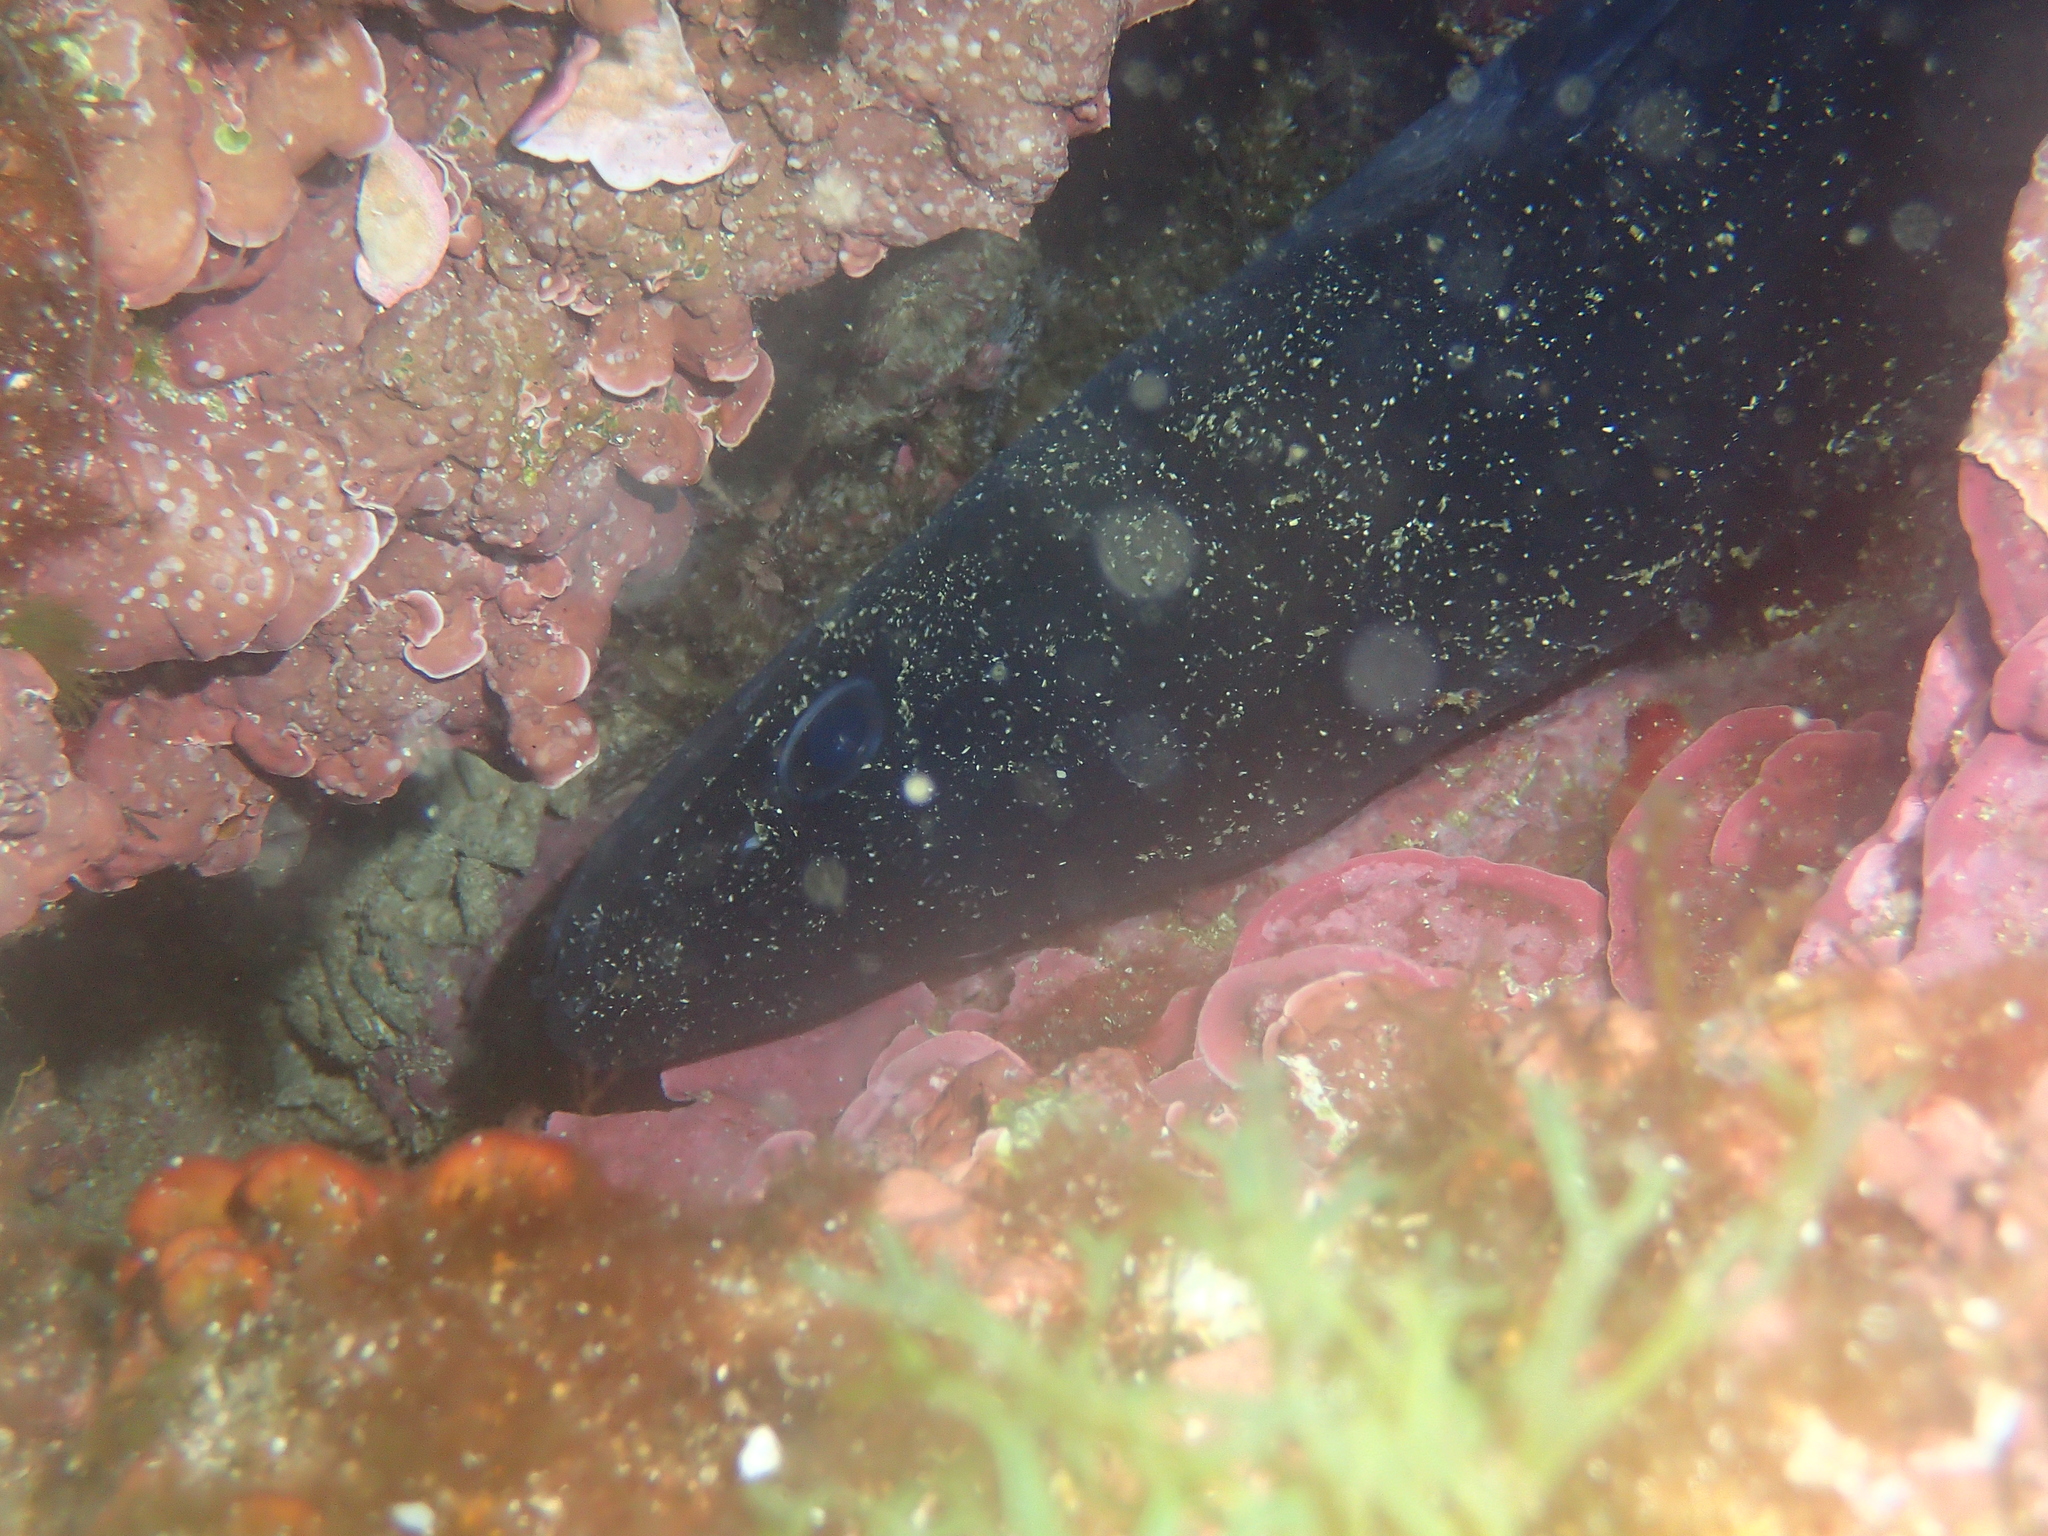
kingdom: Animalia
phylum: Chordata
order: Anguilliformes
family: Congridae
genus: Conger
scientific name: Conger conger
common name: Conger eel
